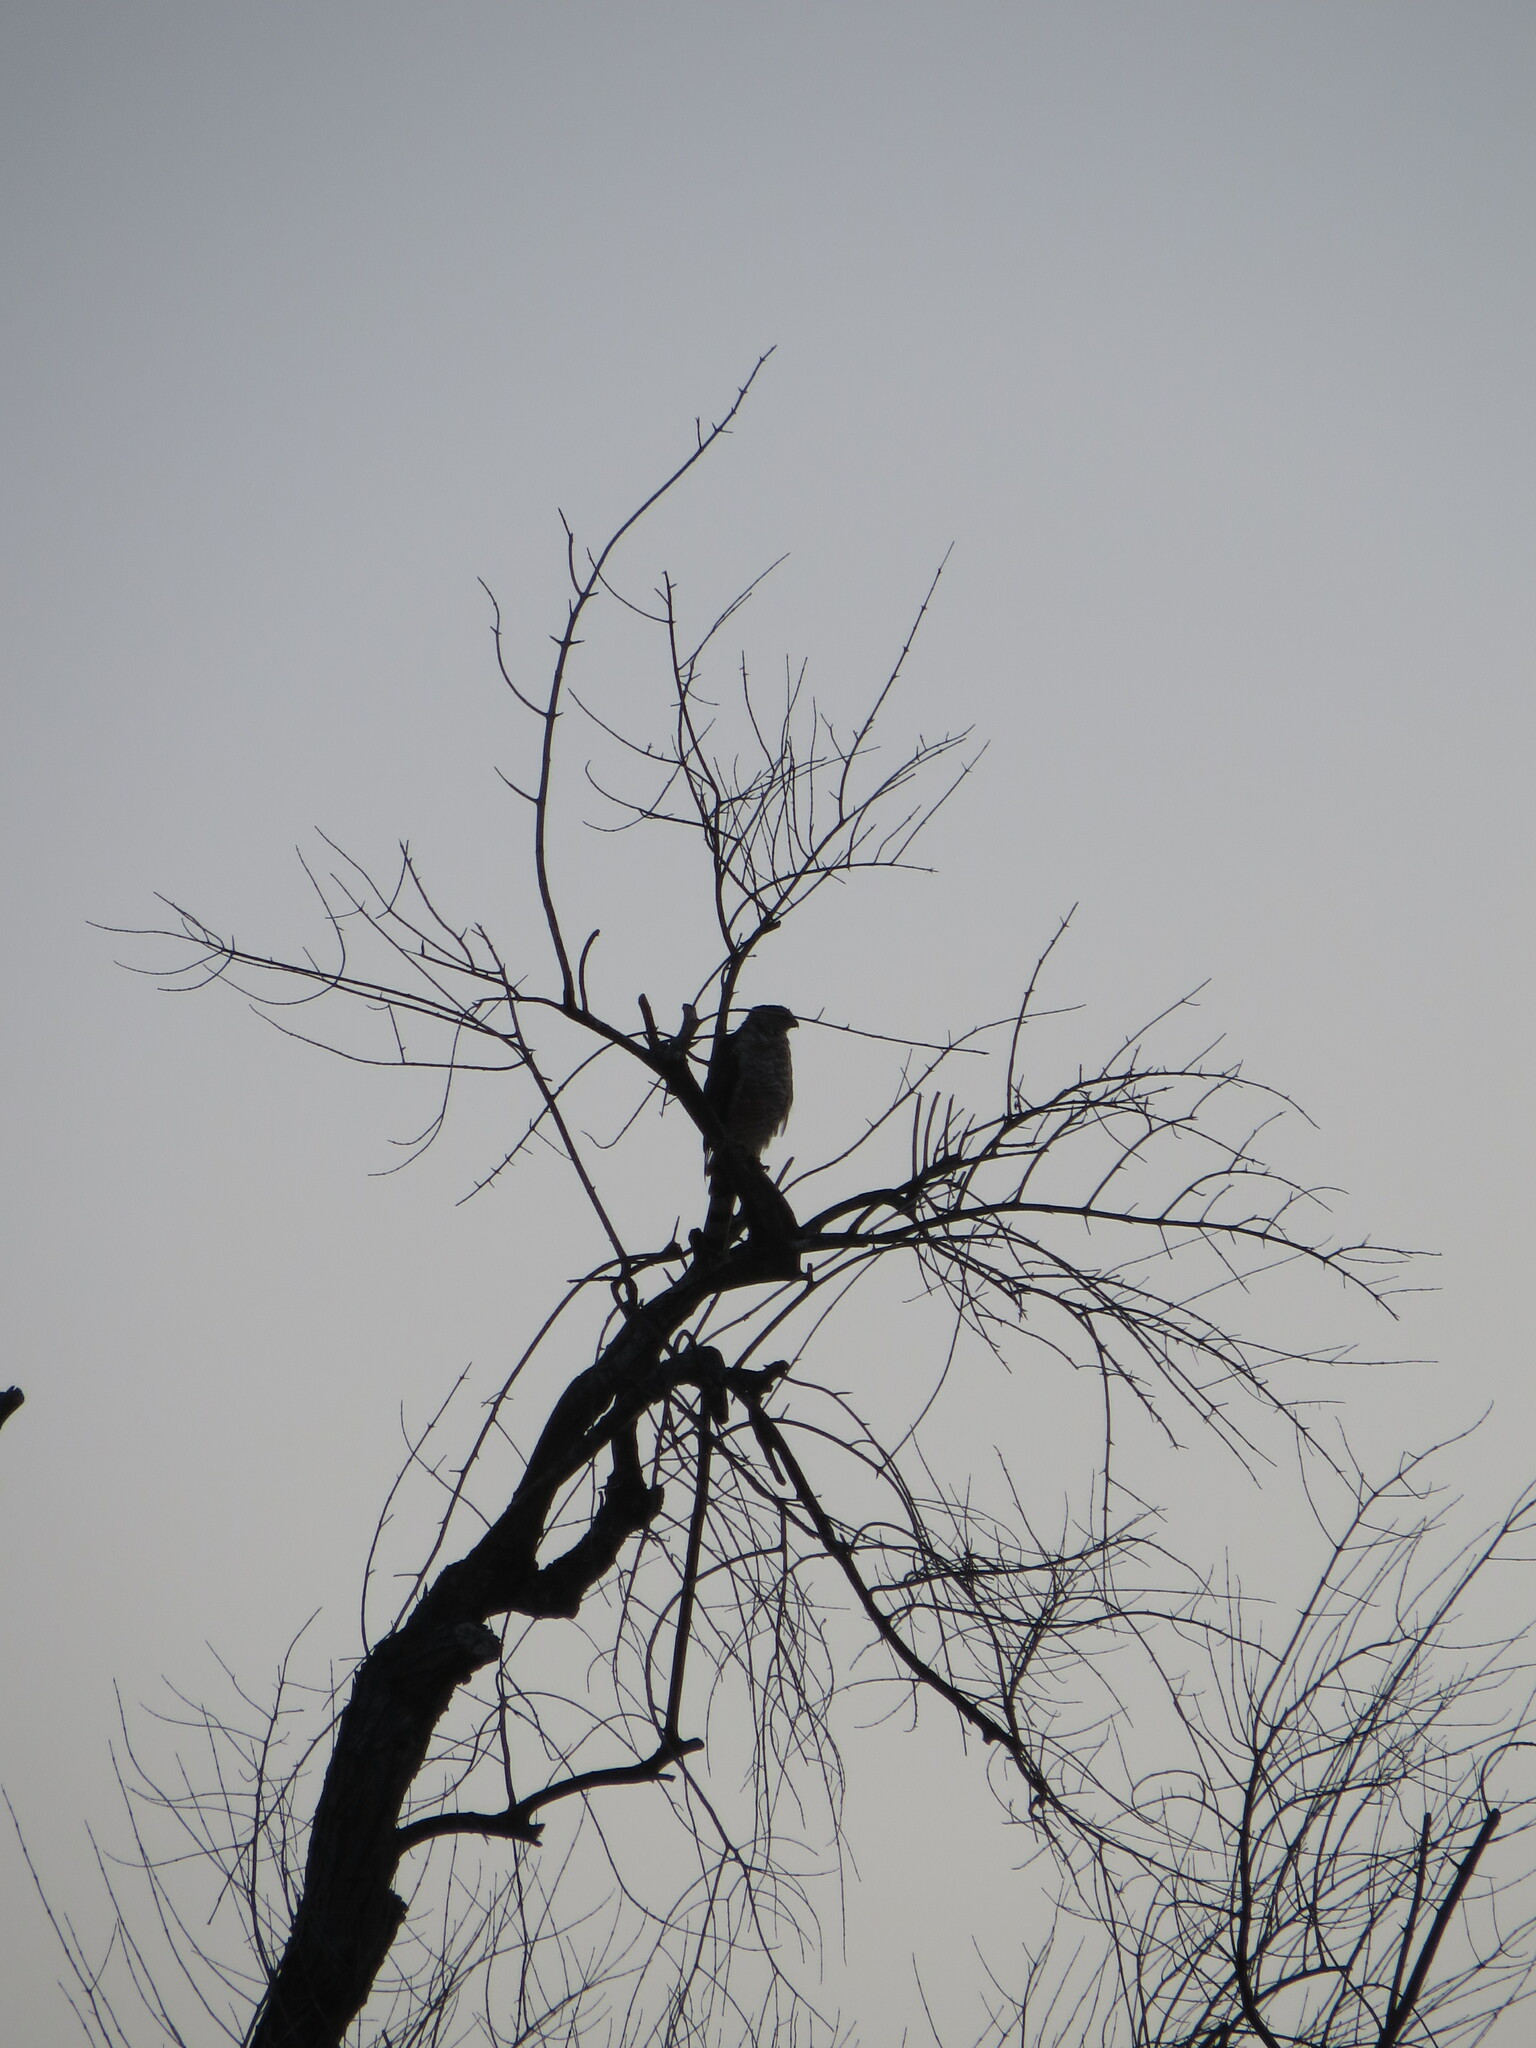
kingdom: Animalia
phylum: Chordata
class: Aves
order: Accipitriformes
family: Accipitridae
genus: Accipiter
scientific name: Accipiter cooperii
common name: Cooper's hawk
